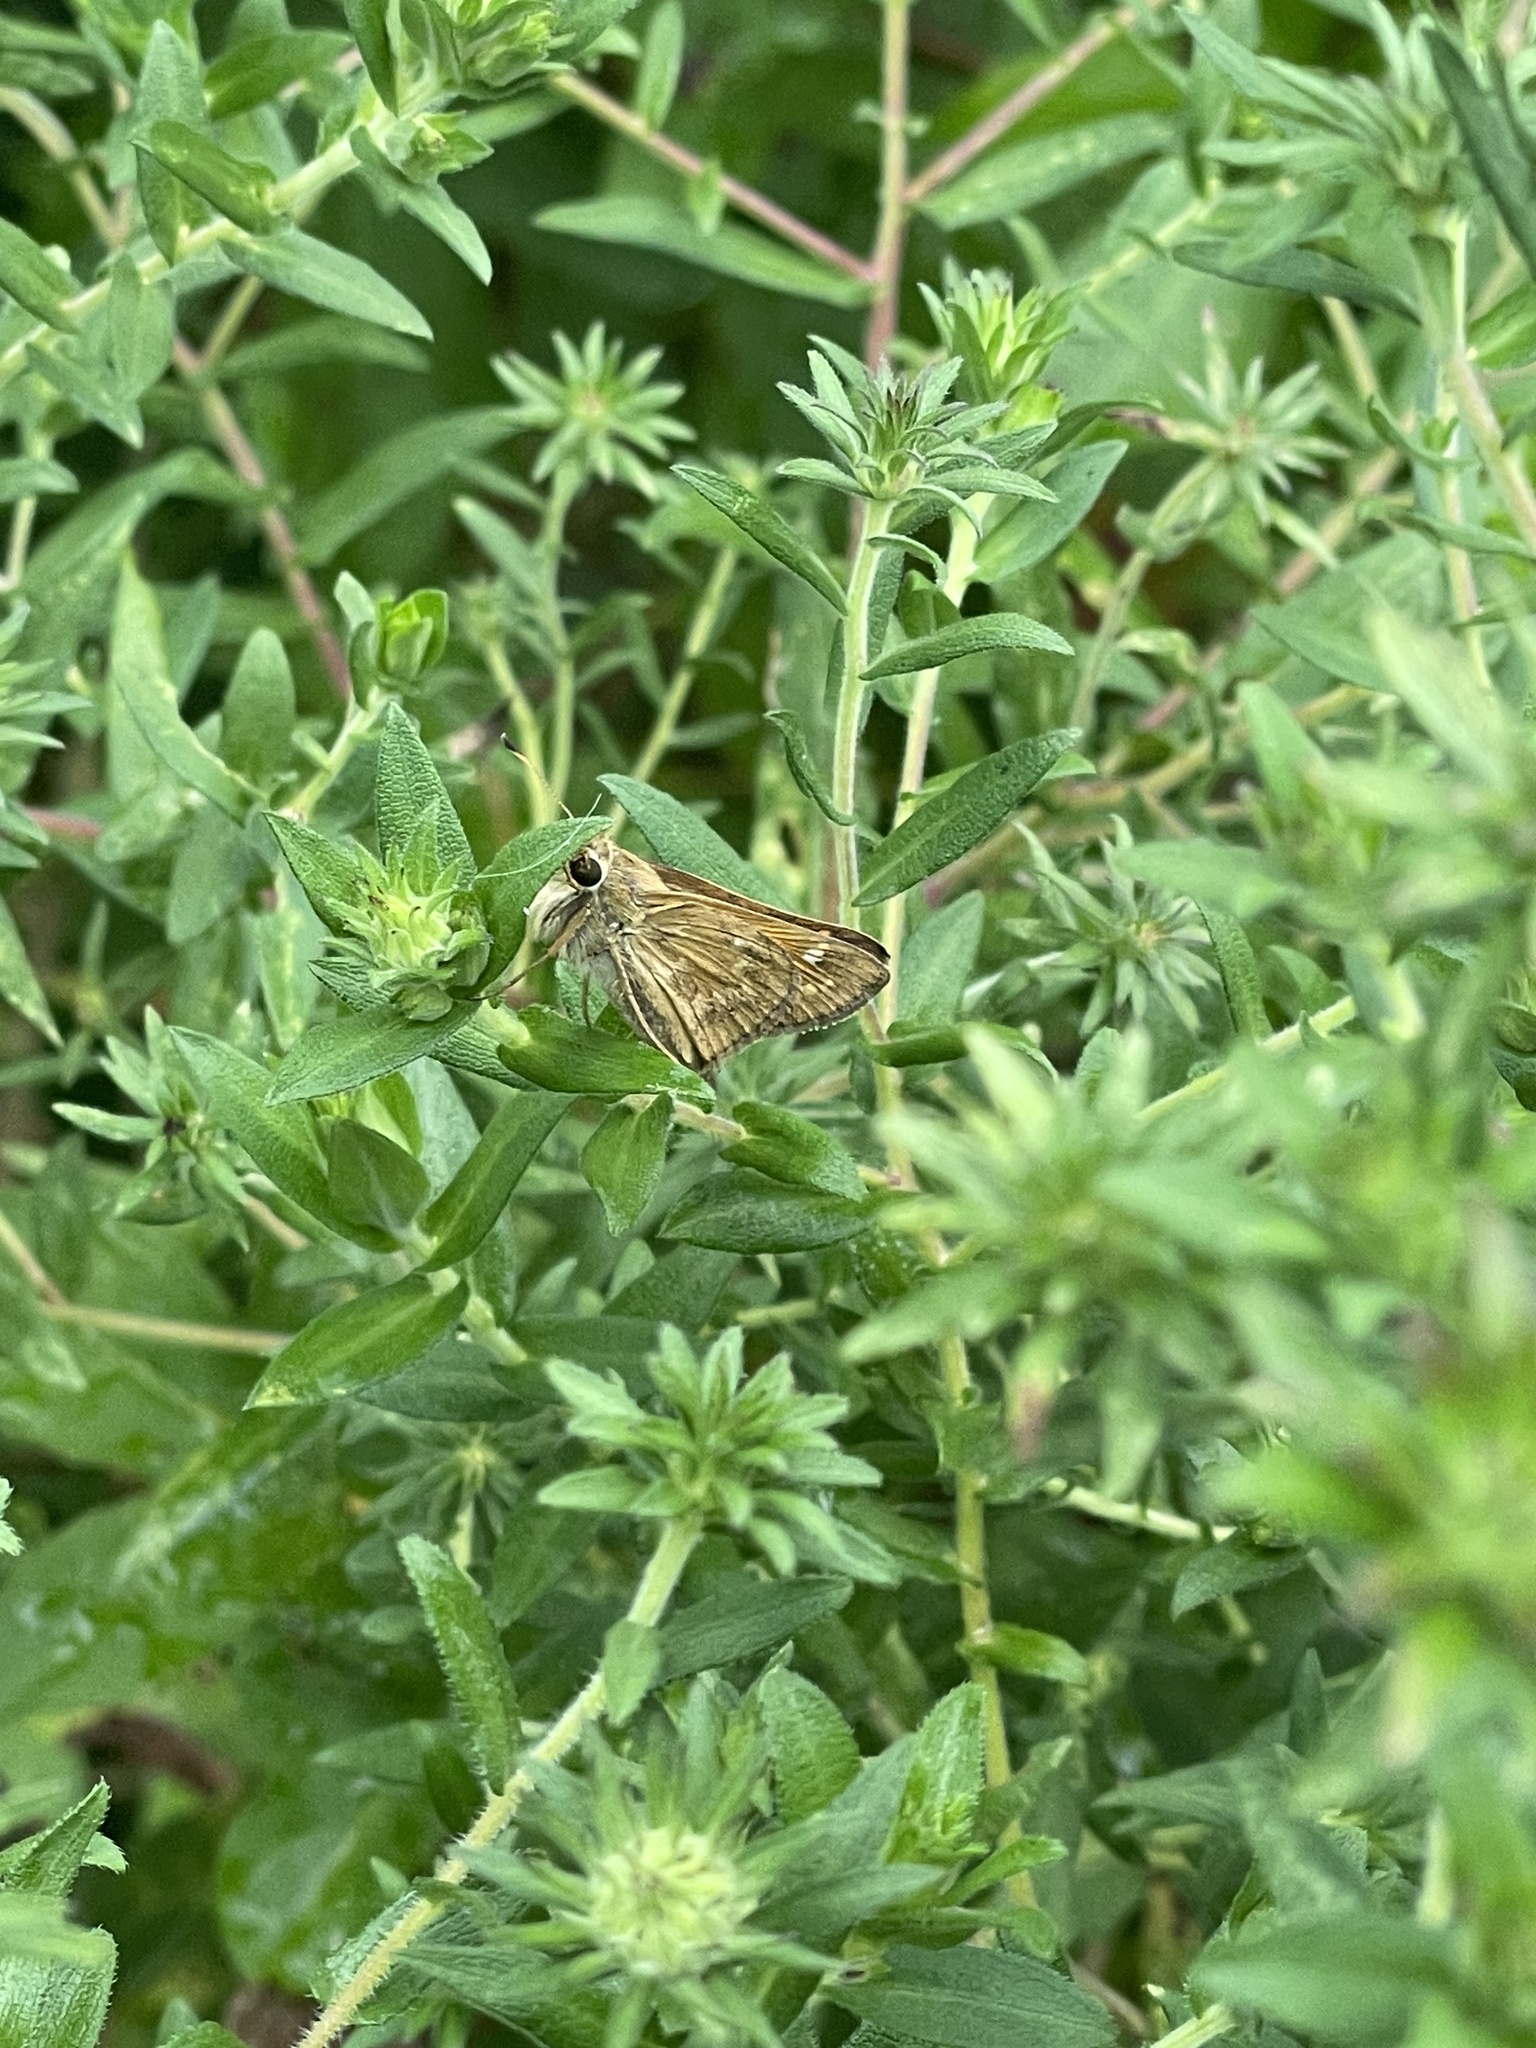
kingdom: Animalia
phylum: Arthropoda
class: Insecta
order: Lepidoptera
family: Hesperiidae
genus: Atalopedes
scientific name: Atalopedes
